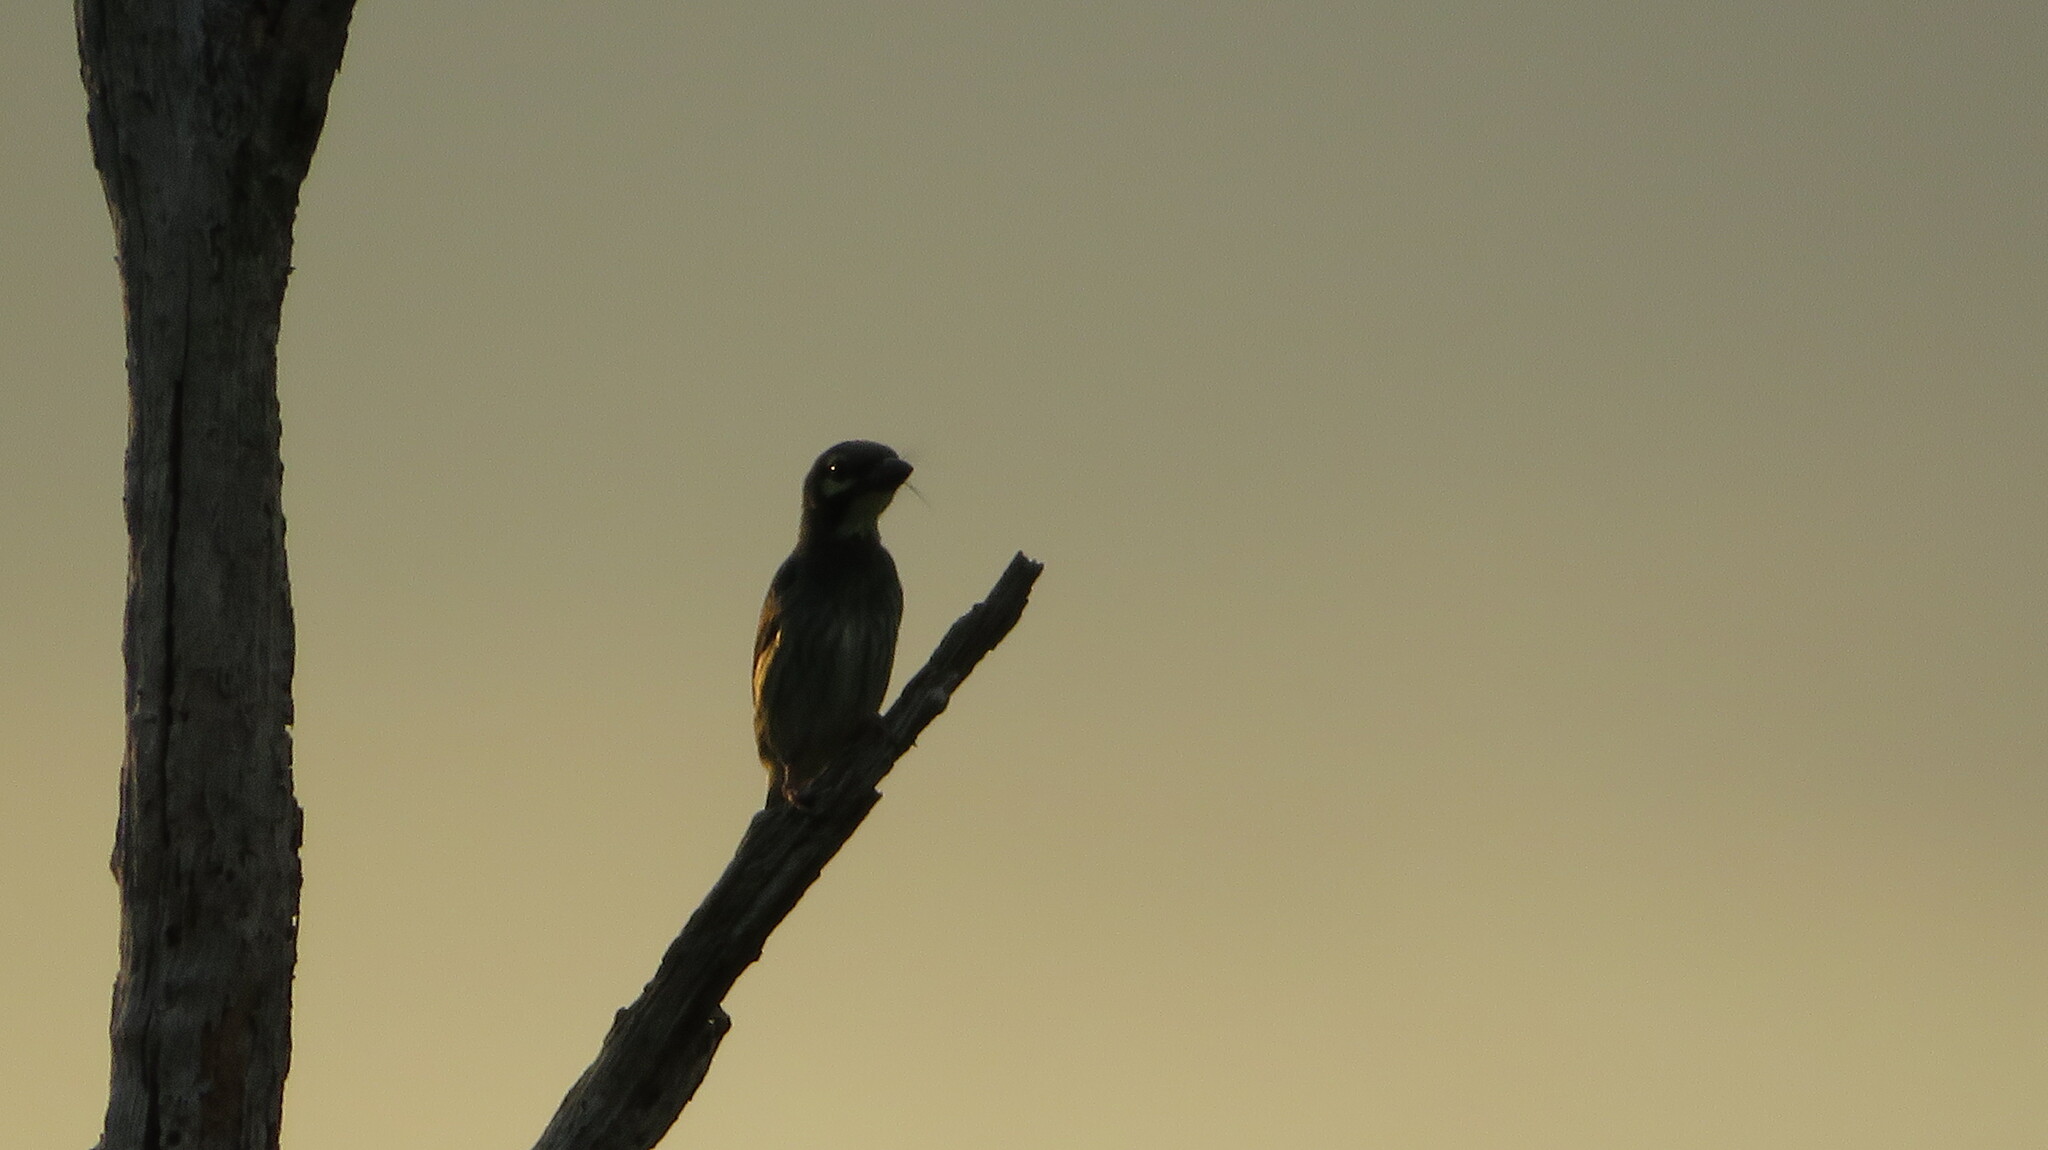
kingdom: Animalia
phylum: Chordata
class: Aves
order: Piciformes
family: Megalaimidae
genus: Psilopogon
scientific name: Psilopogon haemacephalus
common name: Coppersmith barbet
